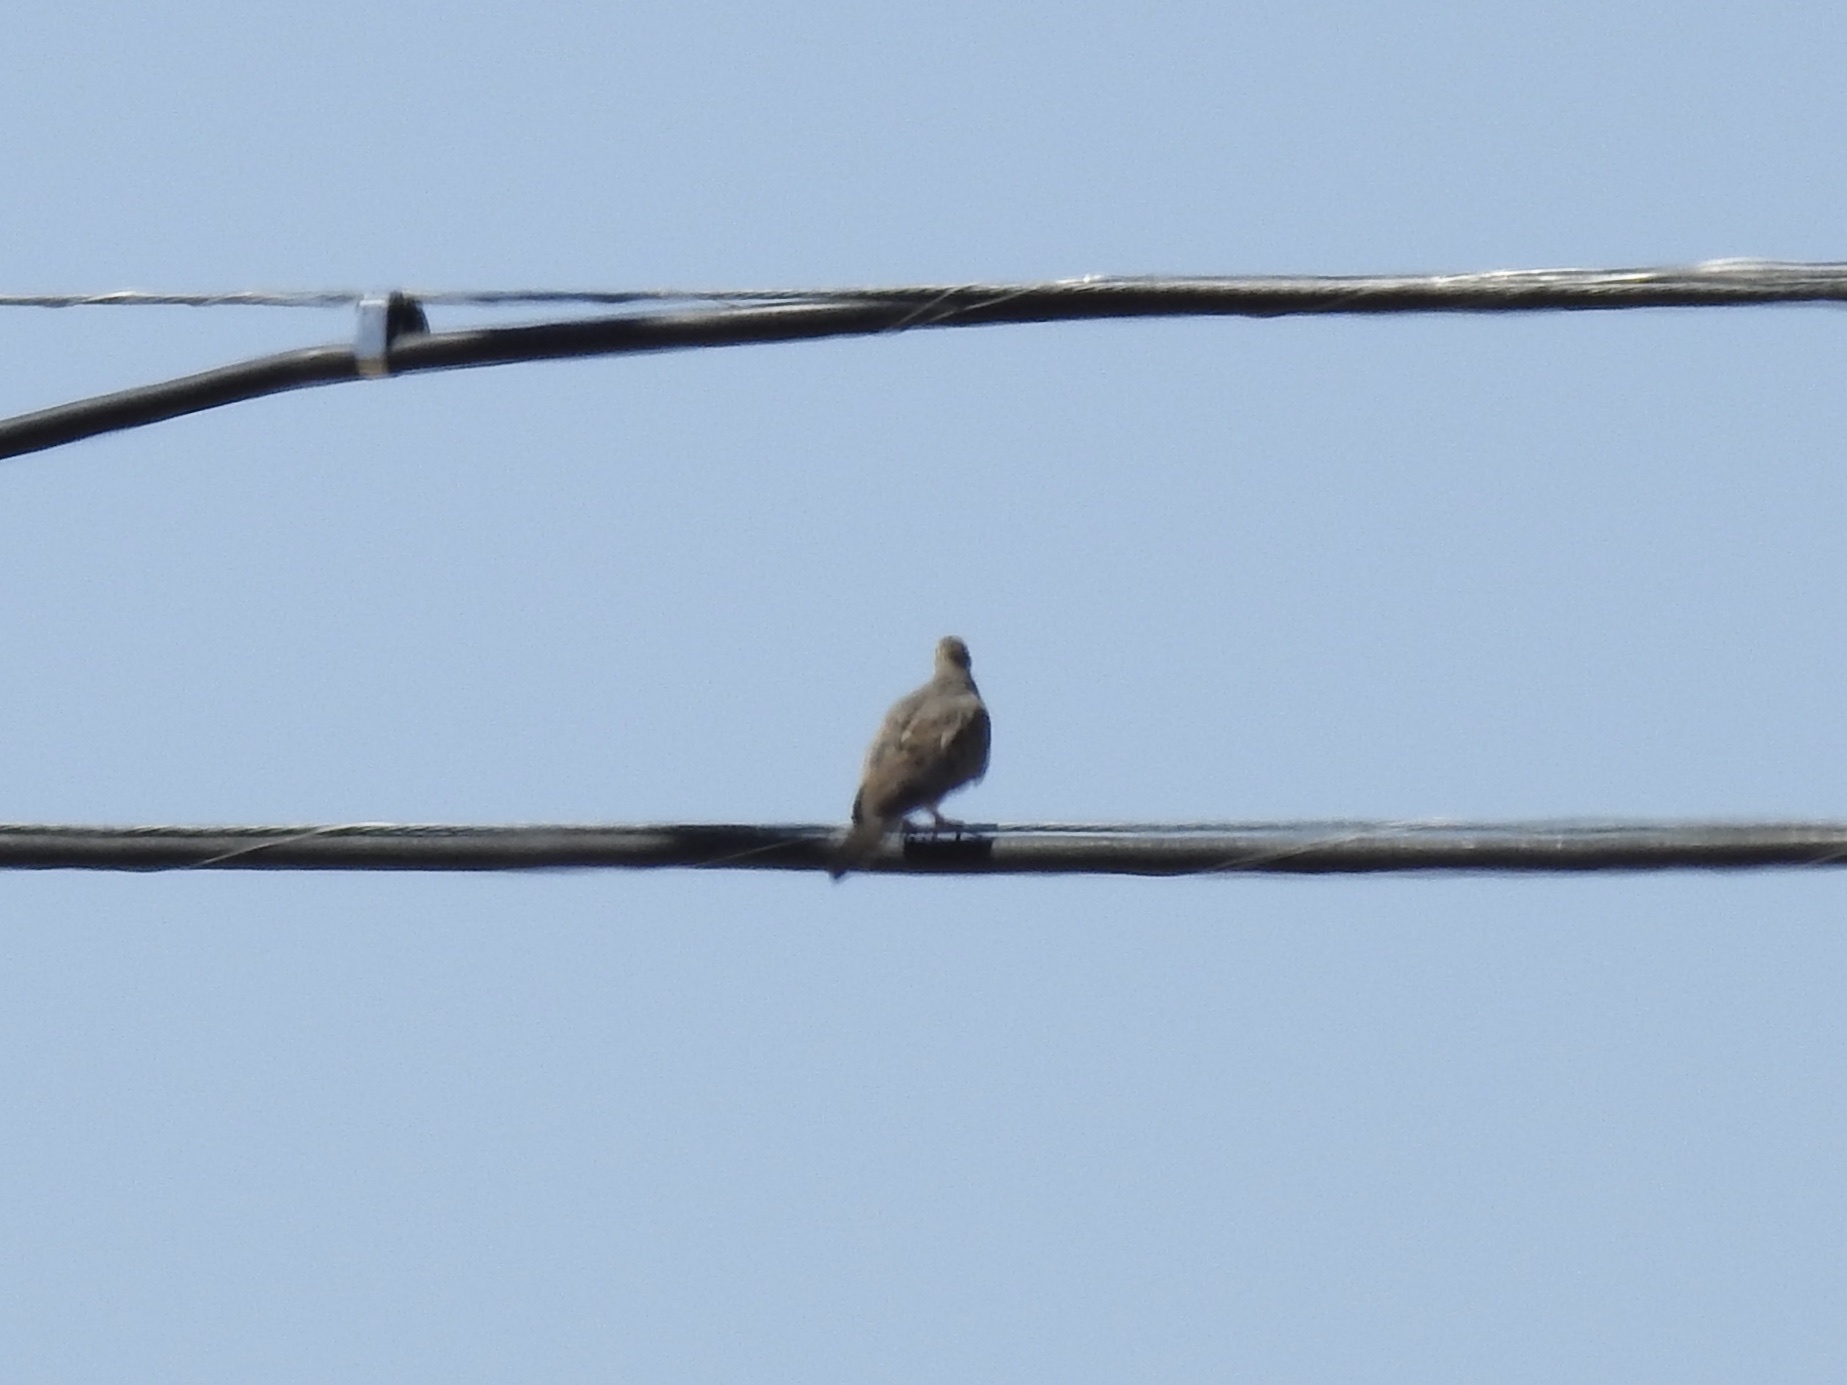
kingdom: Animalia
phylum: Chordata
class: Aves
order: Columbiformes
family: Columbidae
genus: Zenaida
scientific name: Zenaida macroura
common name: Mourning dove
